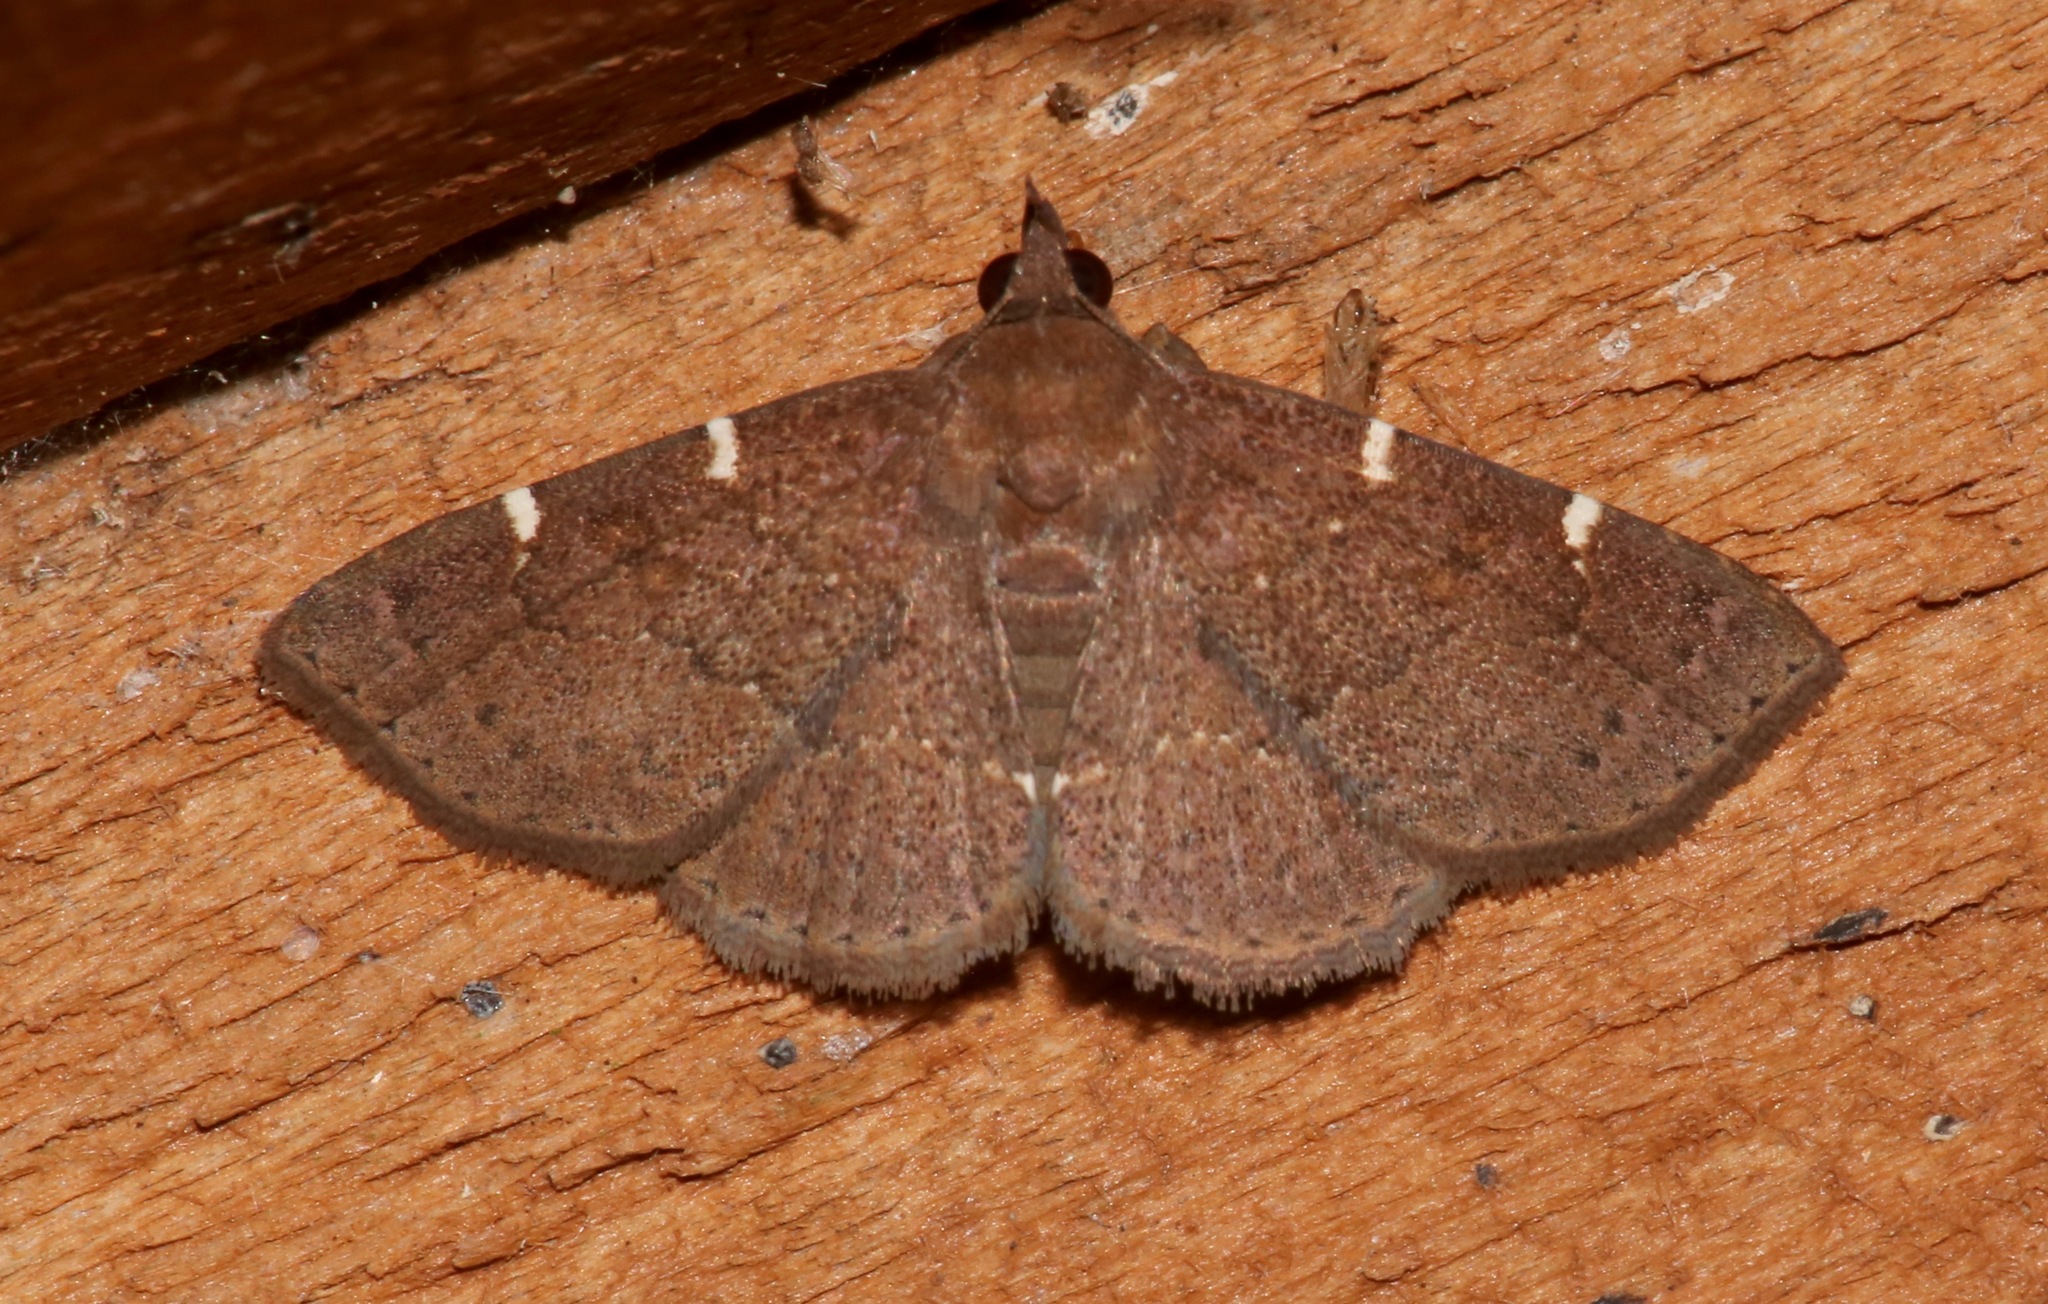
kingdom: Animalia
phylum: Arthropoda
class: Insecta
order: Lepidoptera
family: Erebidae
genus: Antiblemma
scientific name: Antiblemma perva
